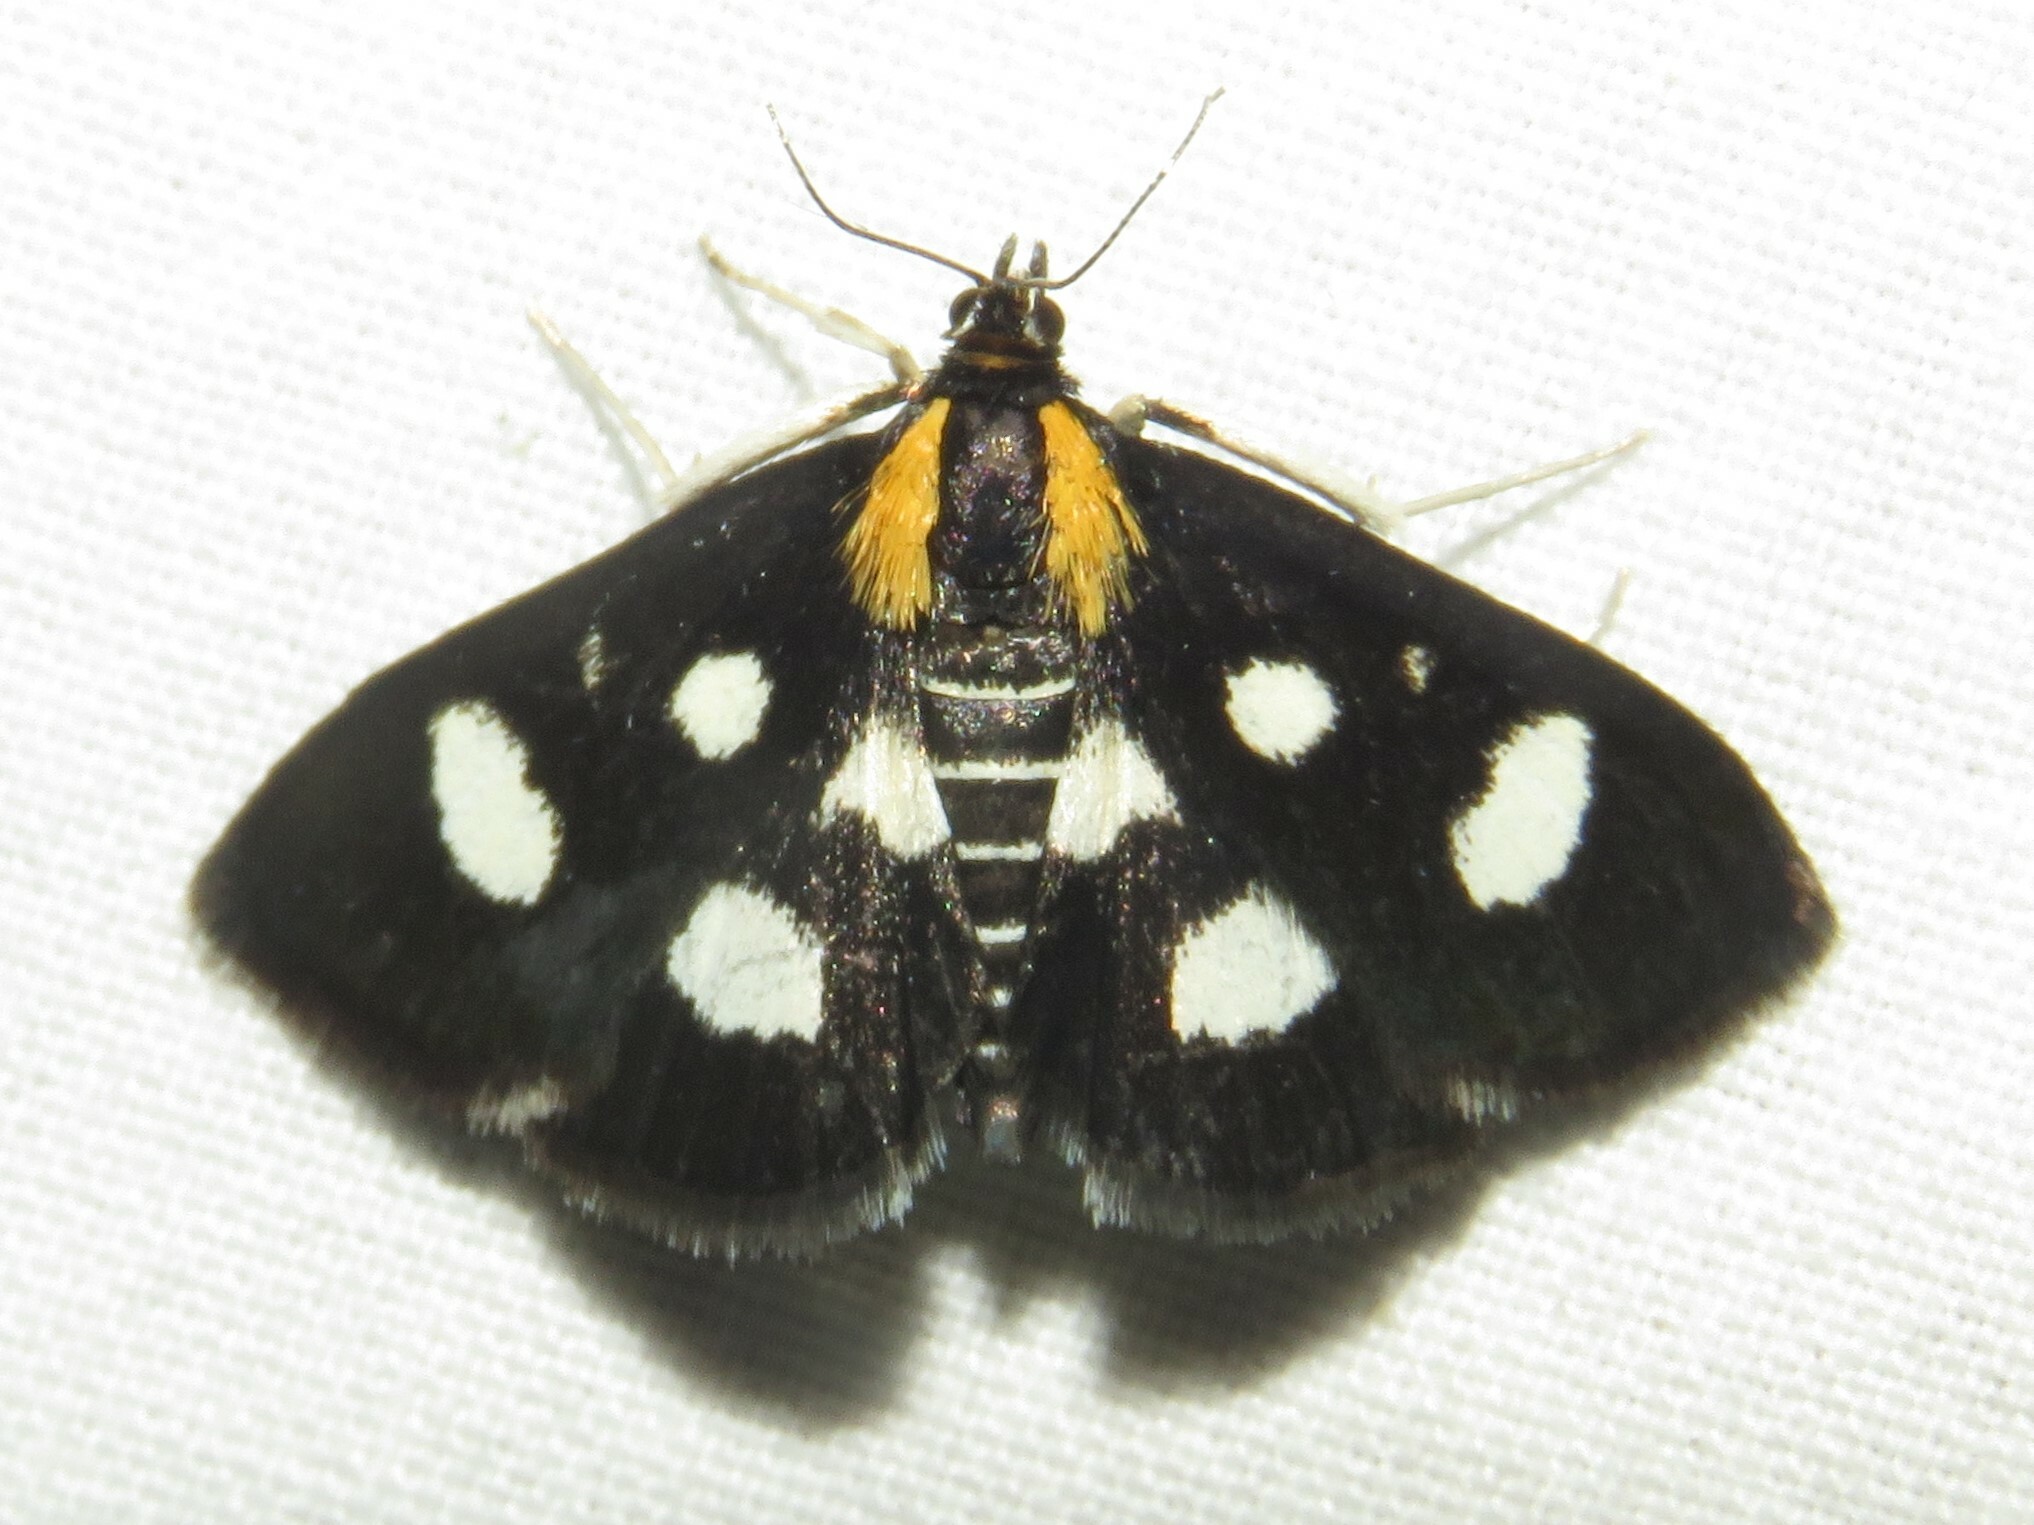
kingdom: Animalia
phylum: Arthropoda
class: Insecta
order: Lepidoptera
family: Crambidae
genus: Anania
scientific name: Anania funebris
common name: White-spotted sable moth
